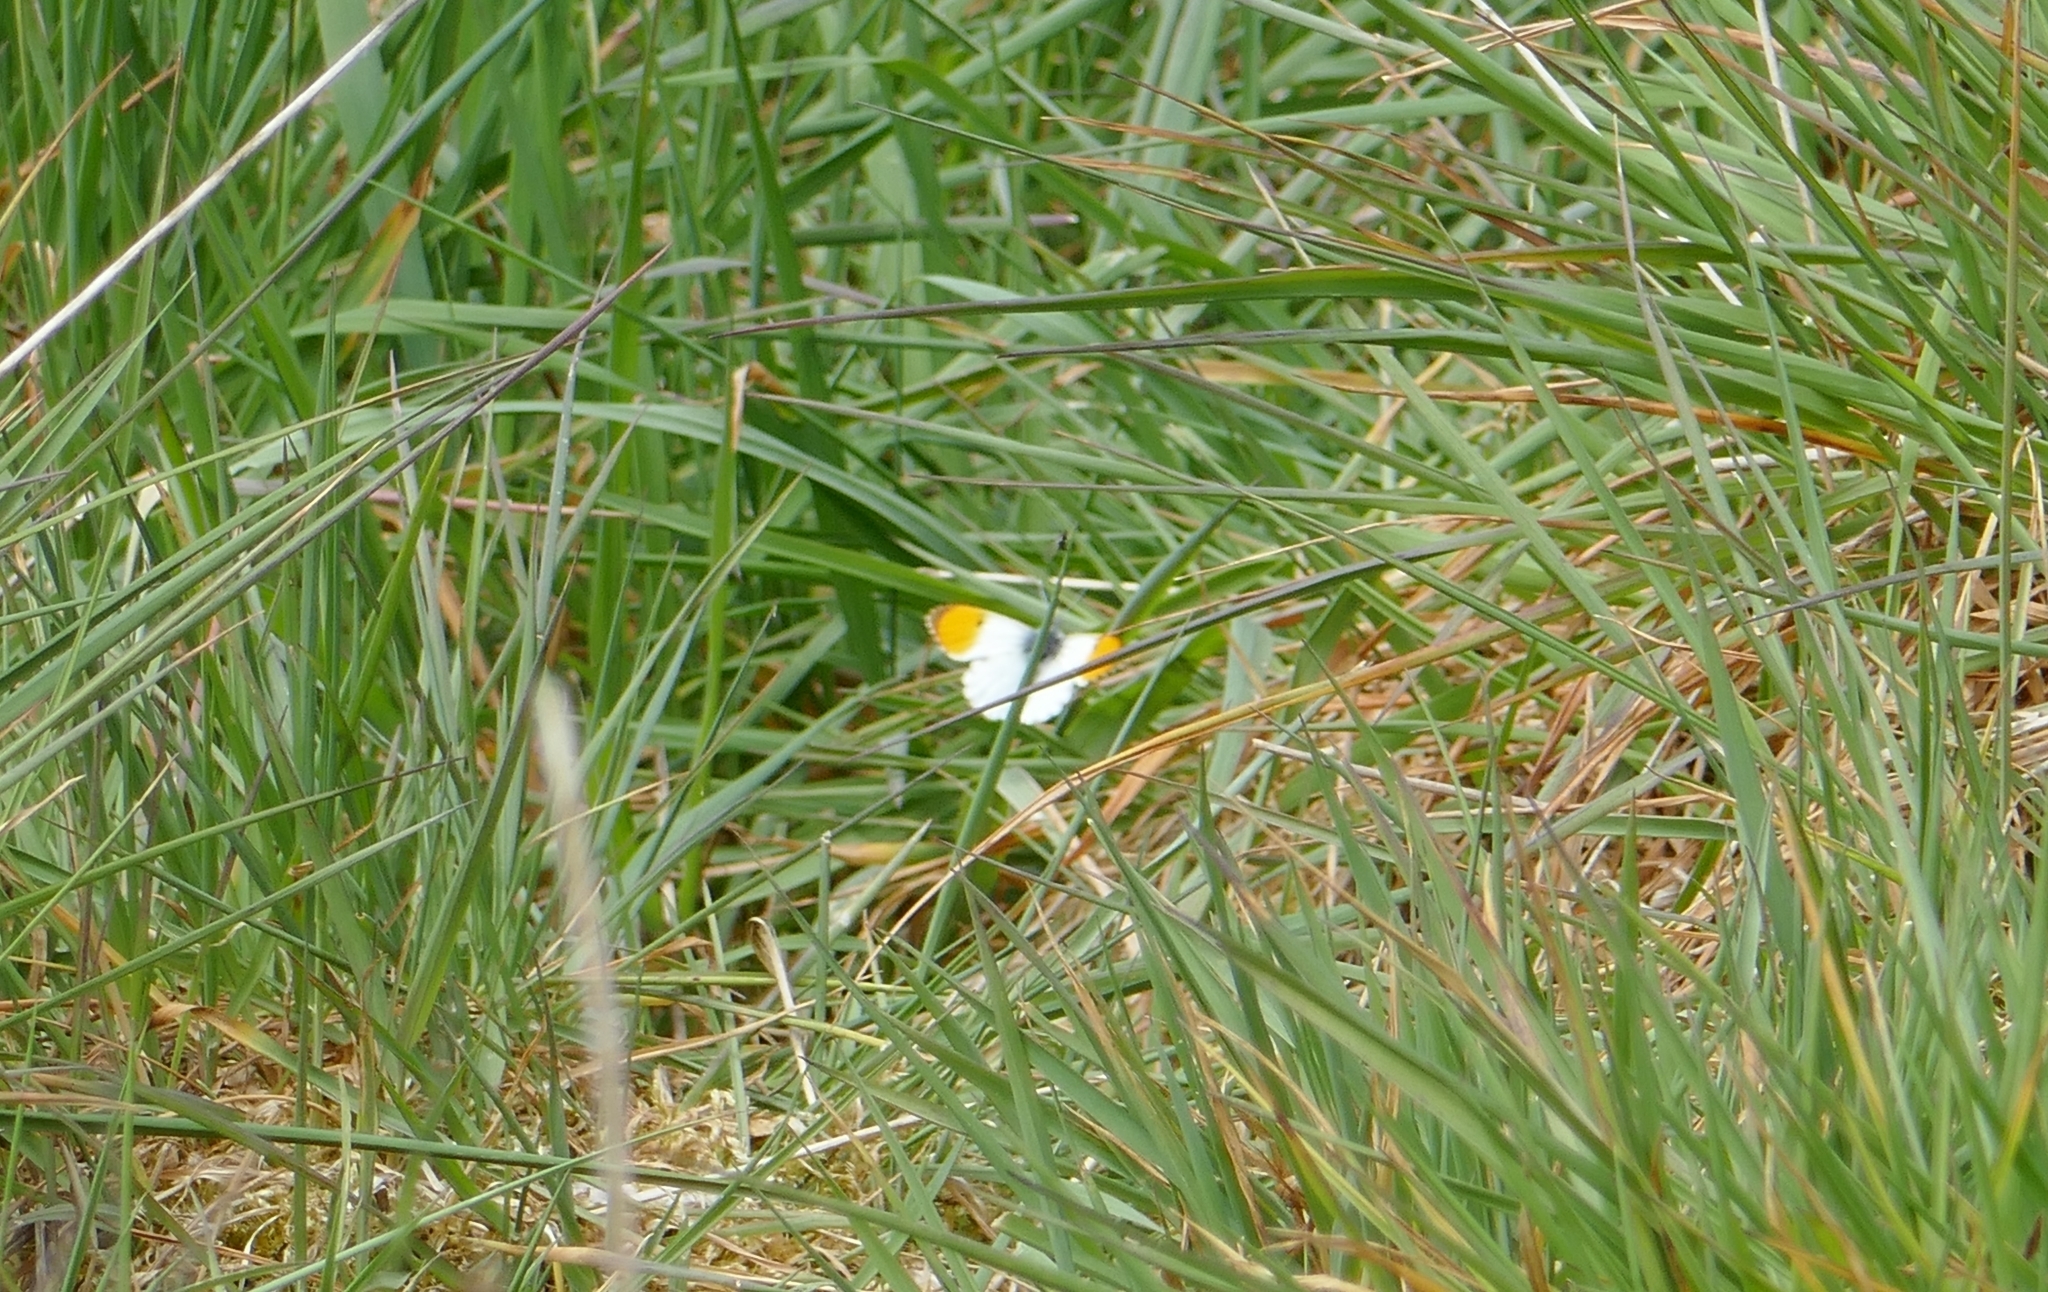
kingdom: Animalia
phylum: Arthropoda
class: Insecta
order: Lepidoptera
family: Pieridae
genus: Anthocharis
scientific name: Anthocharis cardamines
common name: Orange-tip
